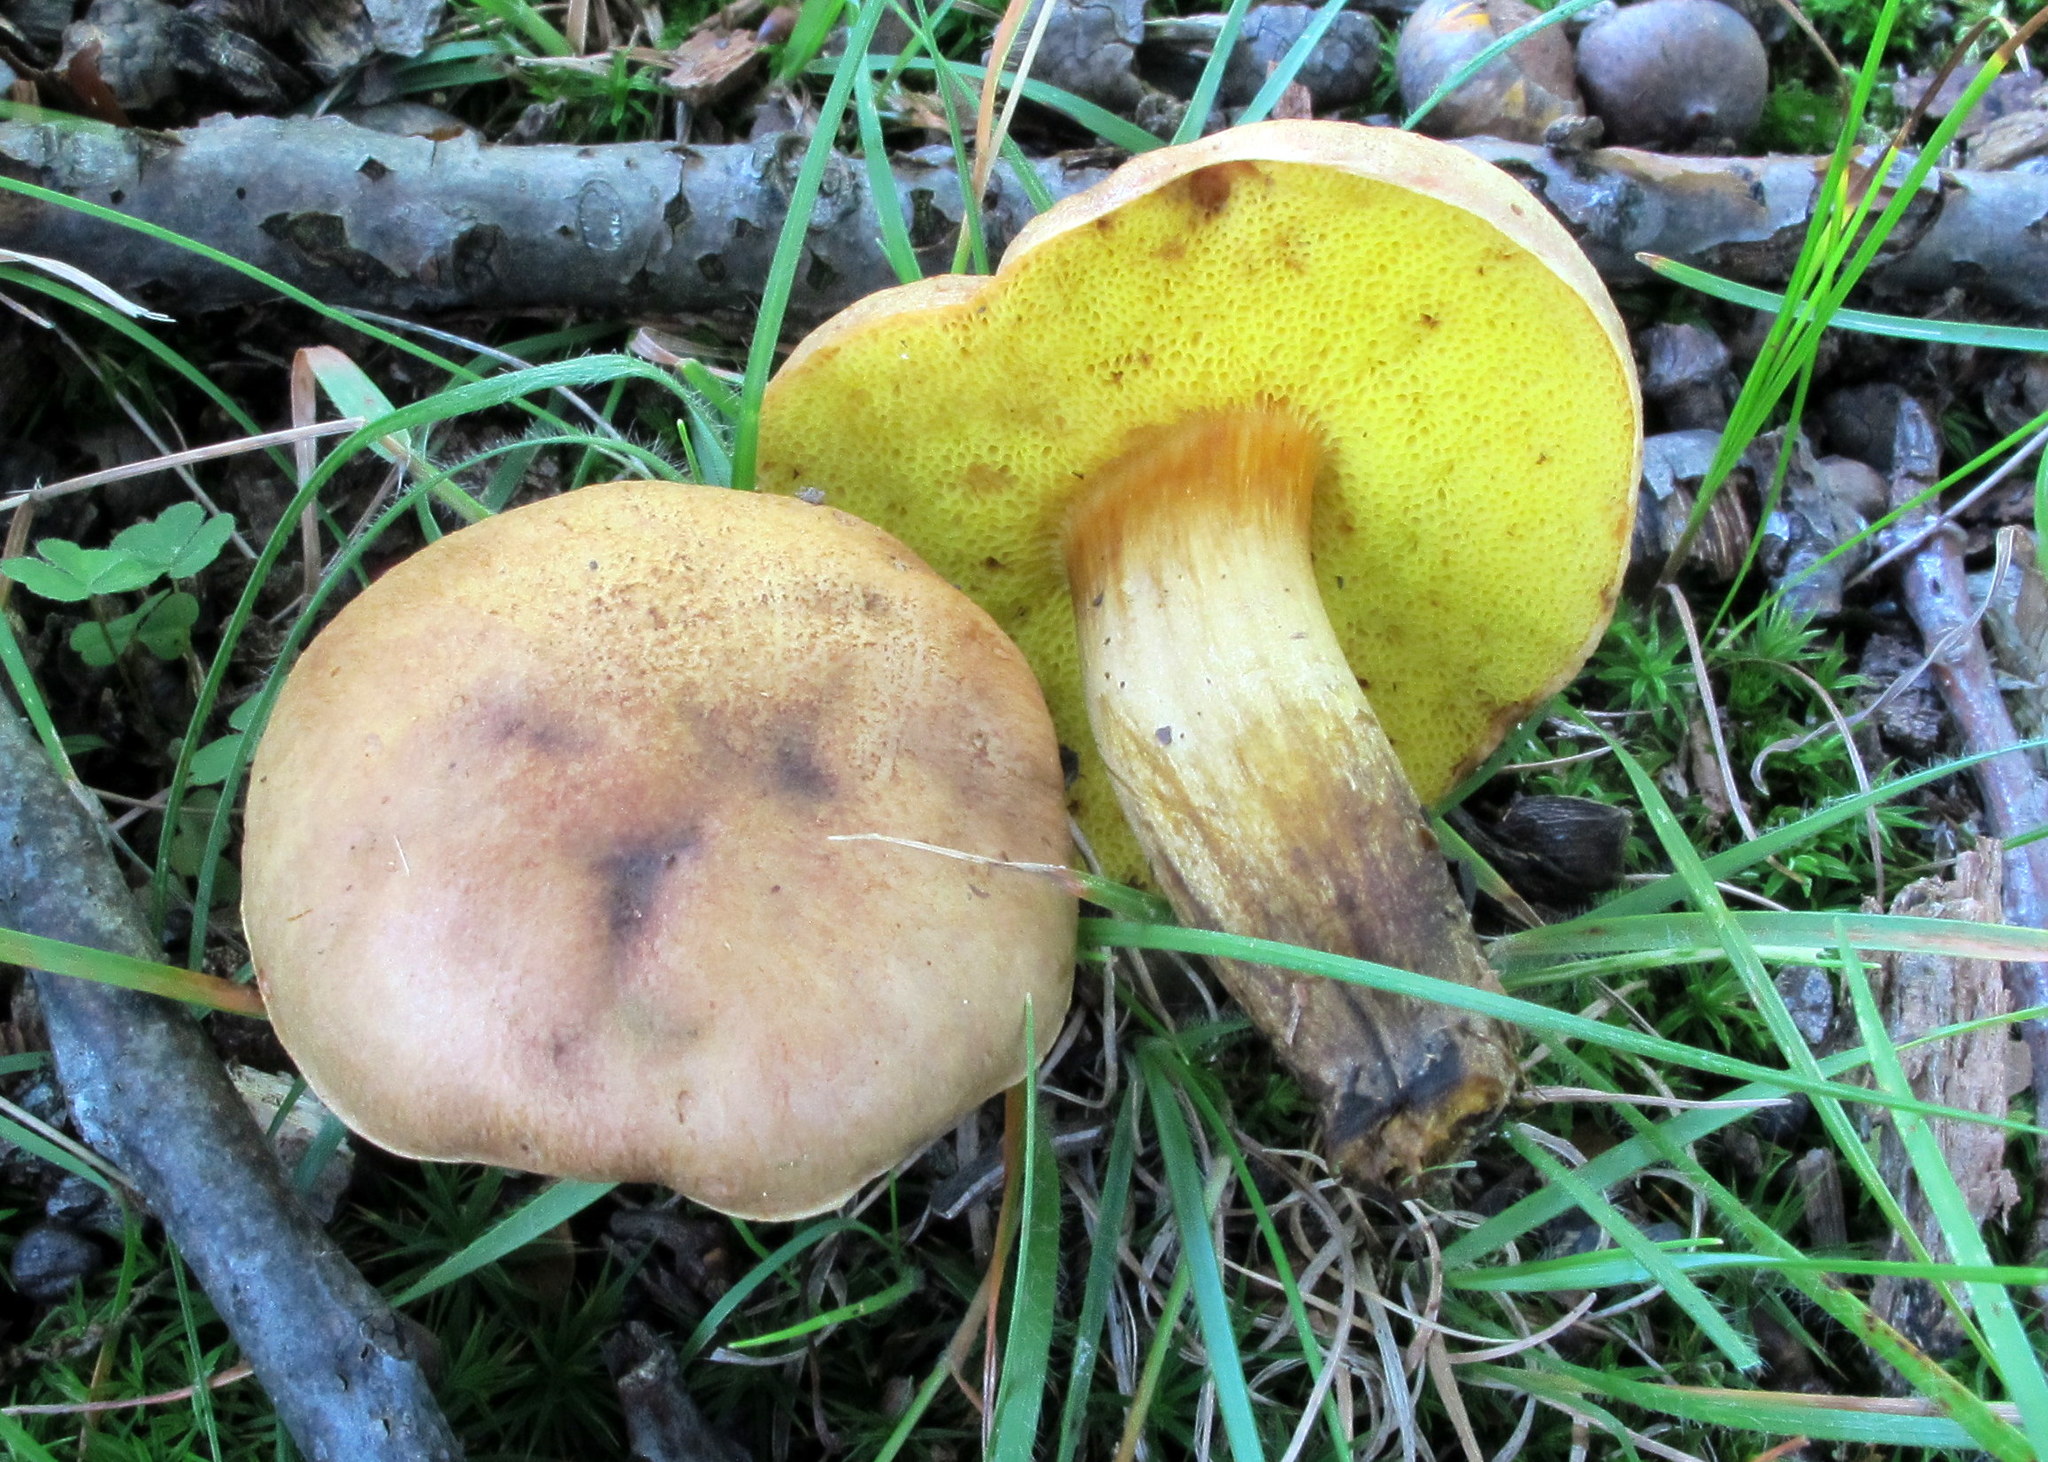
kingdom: Fungi
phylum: Basidiomycota
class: Agaricomycetes
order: Boletales
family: Boletaceae
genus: Aureoboletus
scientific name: Aureoboletus innixus
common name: Clustered brown bolete
